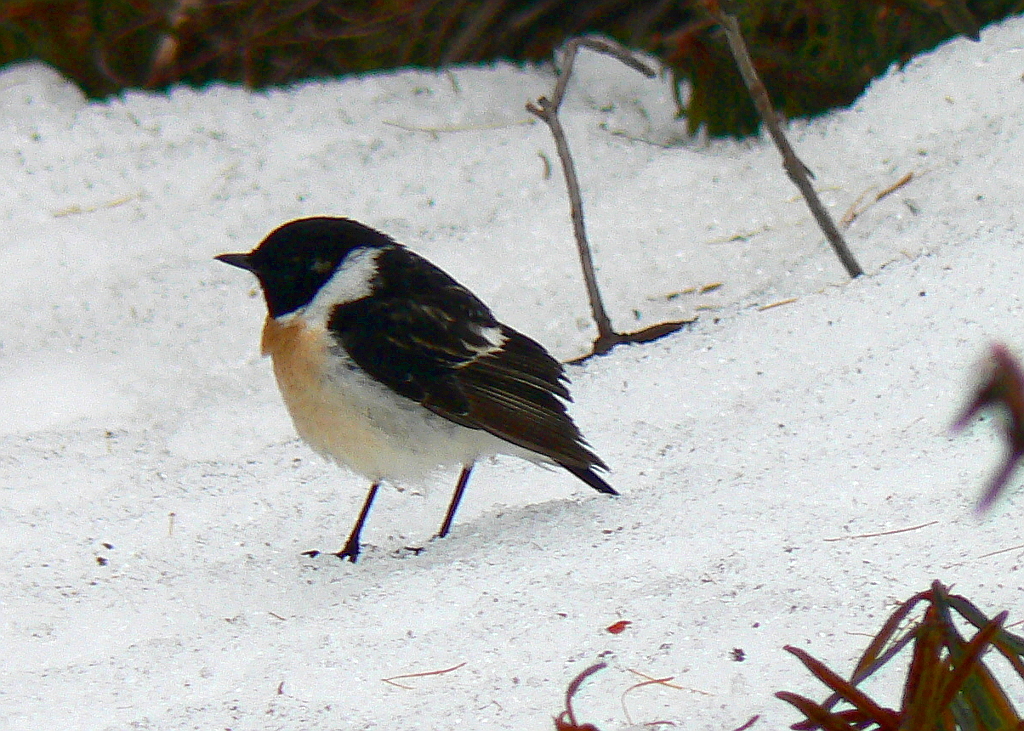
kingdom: Animalia
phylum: Chordata
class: Aves
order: Passeriformes
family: Muscicapidae
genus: Saxicola
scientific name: Saxicola maurus
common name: Siberian stonechat
